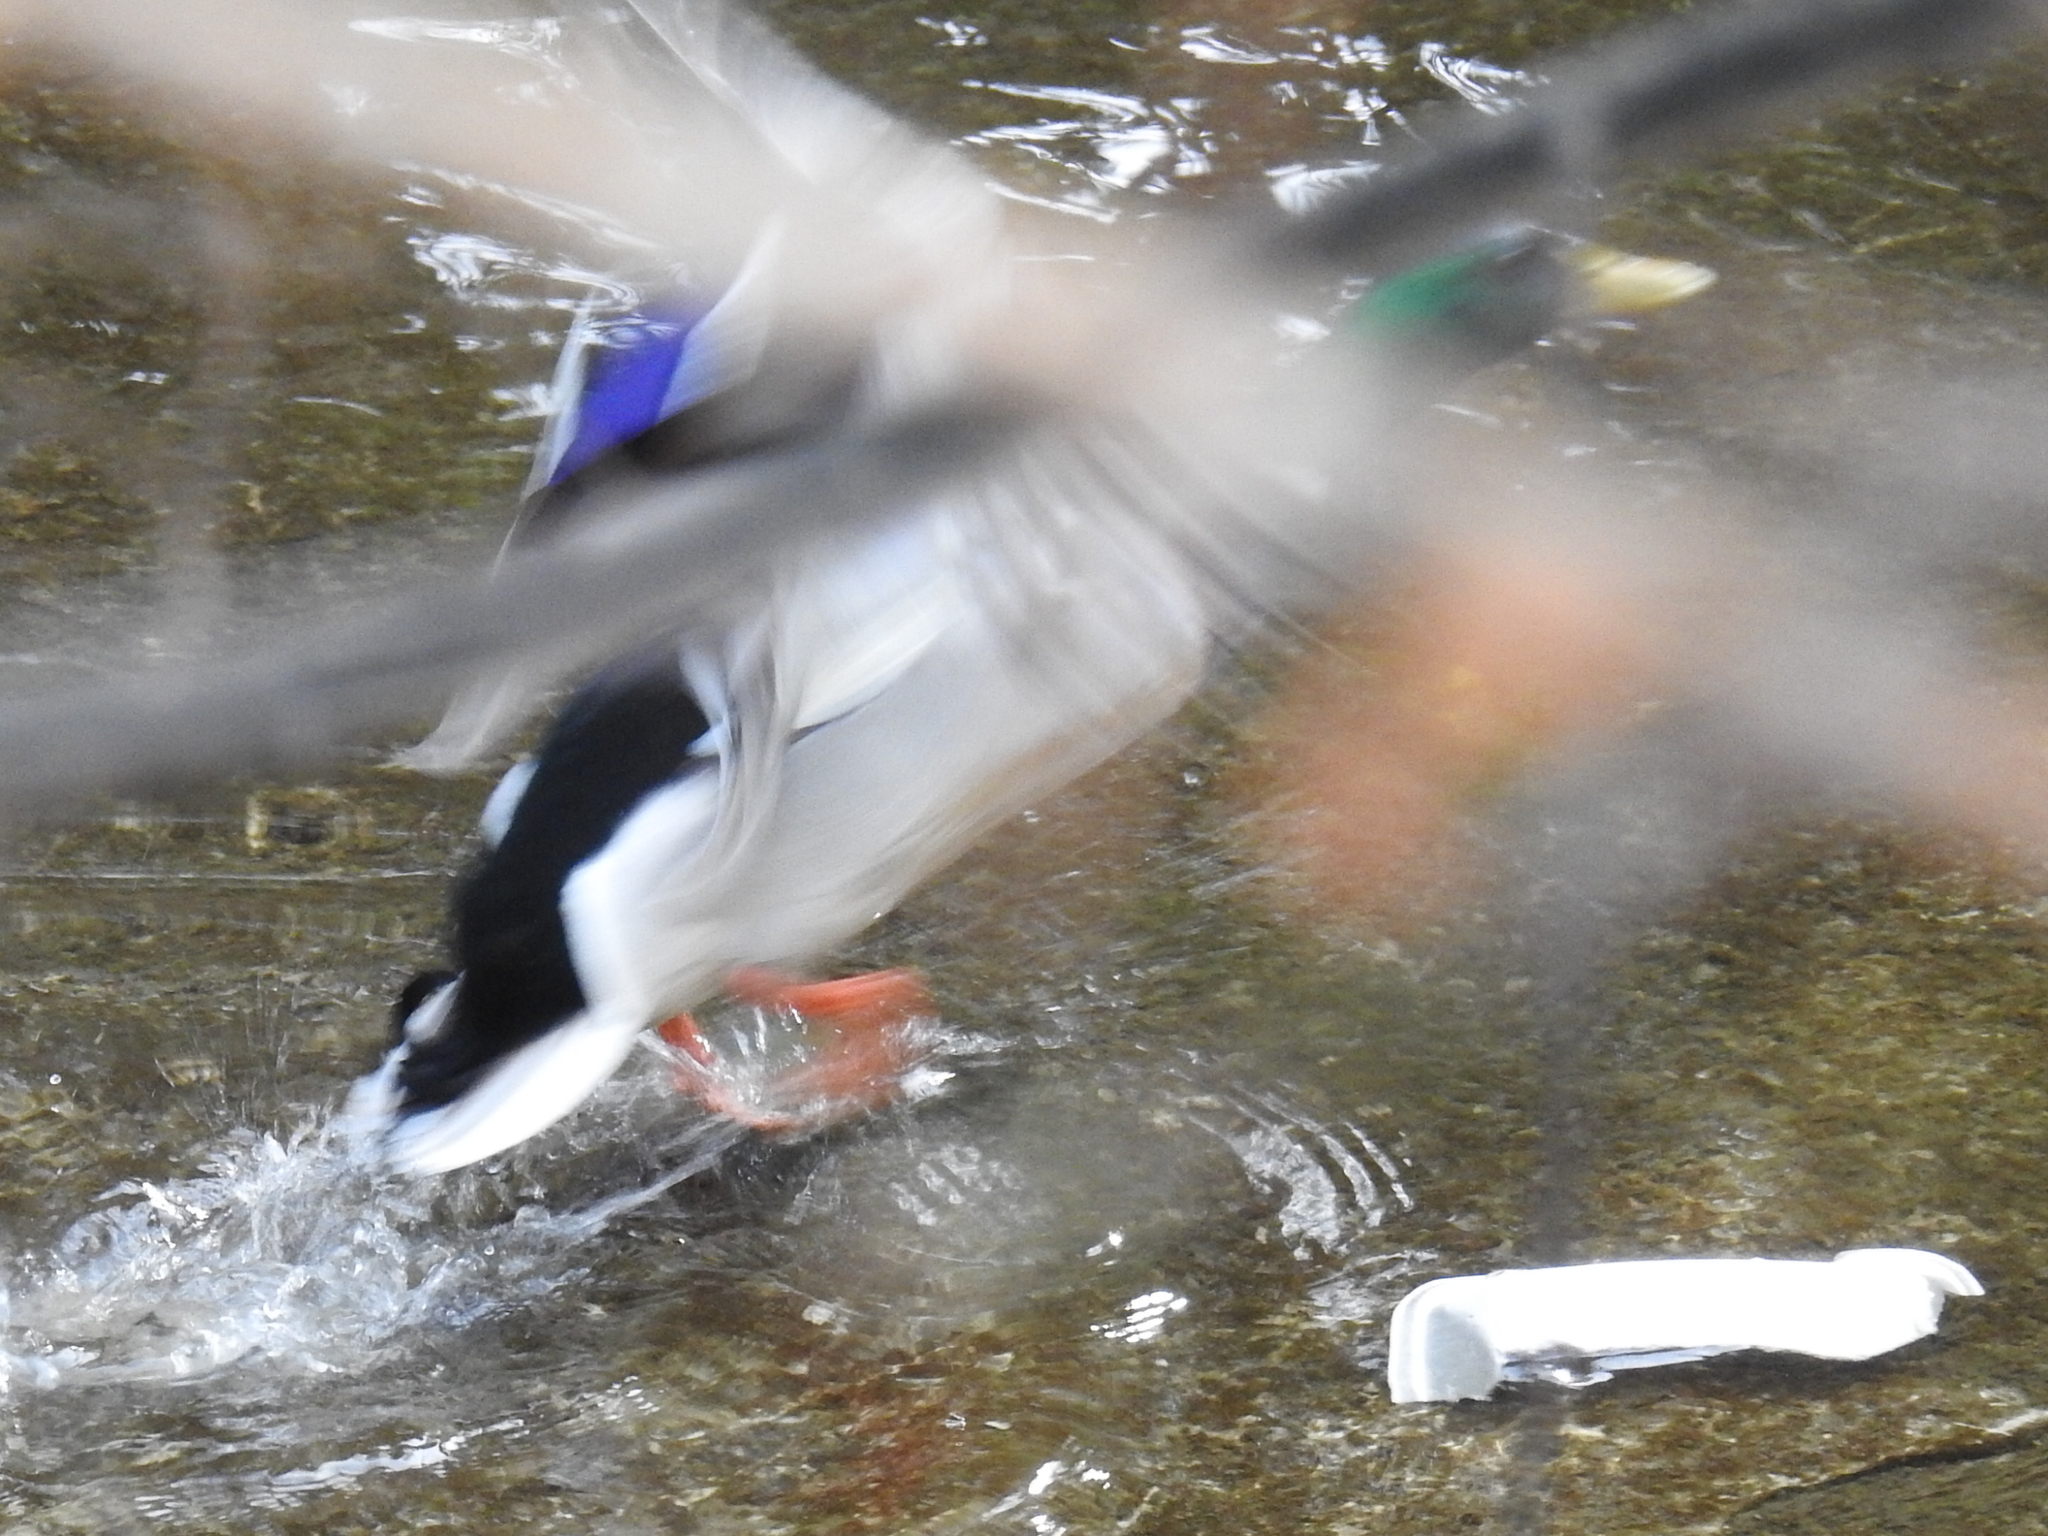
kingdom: Animalia
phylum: Chordata
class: Aves
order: Anseriformes
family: Anatidae
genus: Anas
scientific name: Anas platyrhynchos
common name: Mallard
